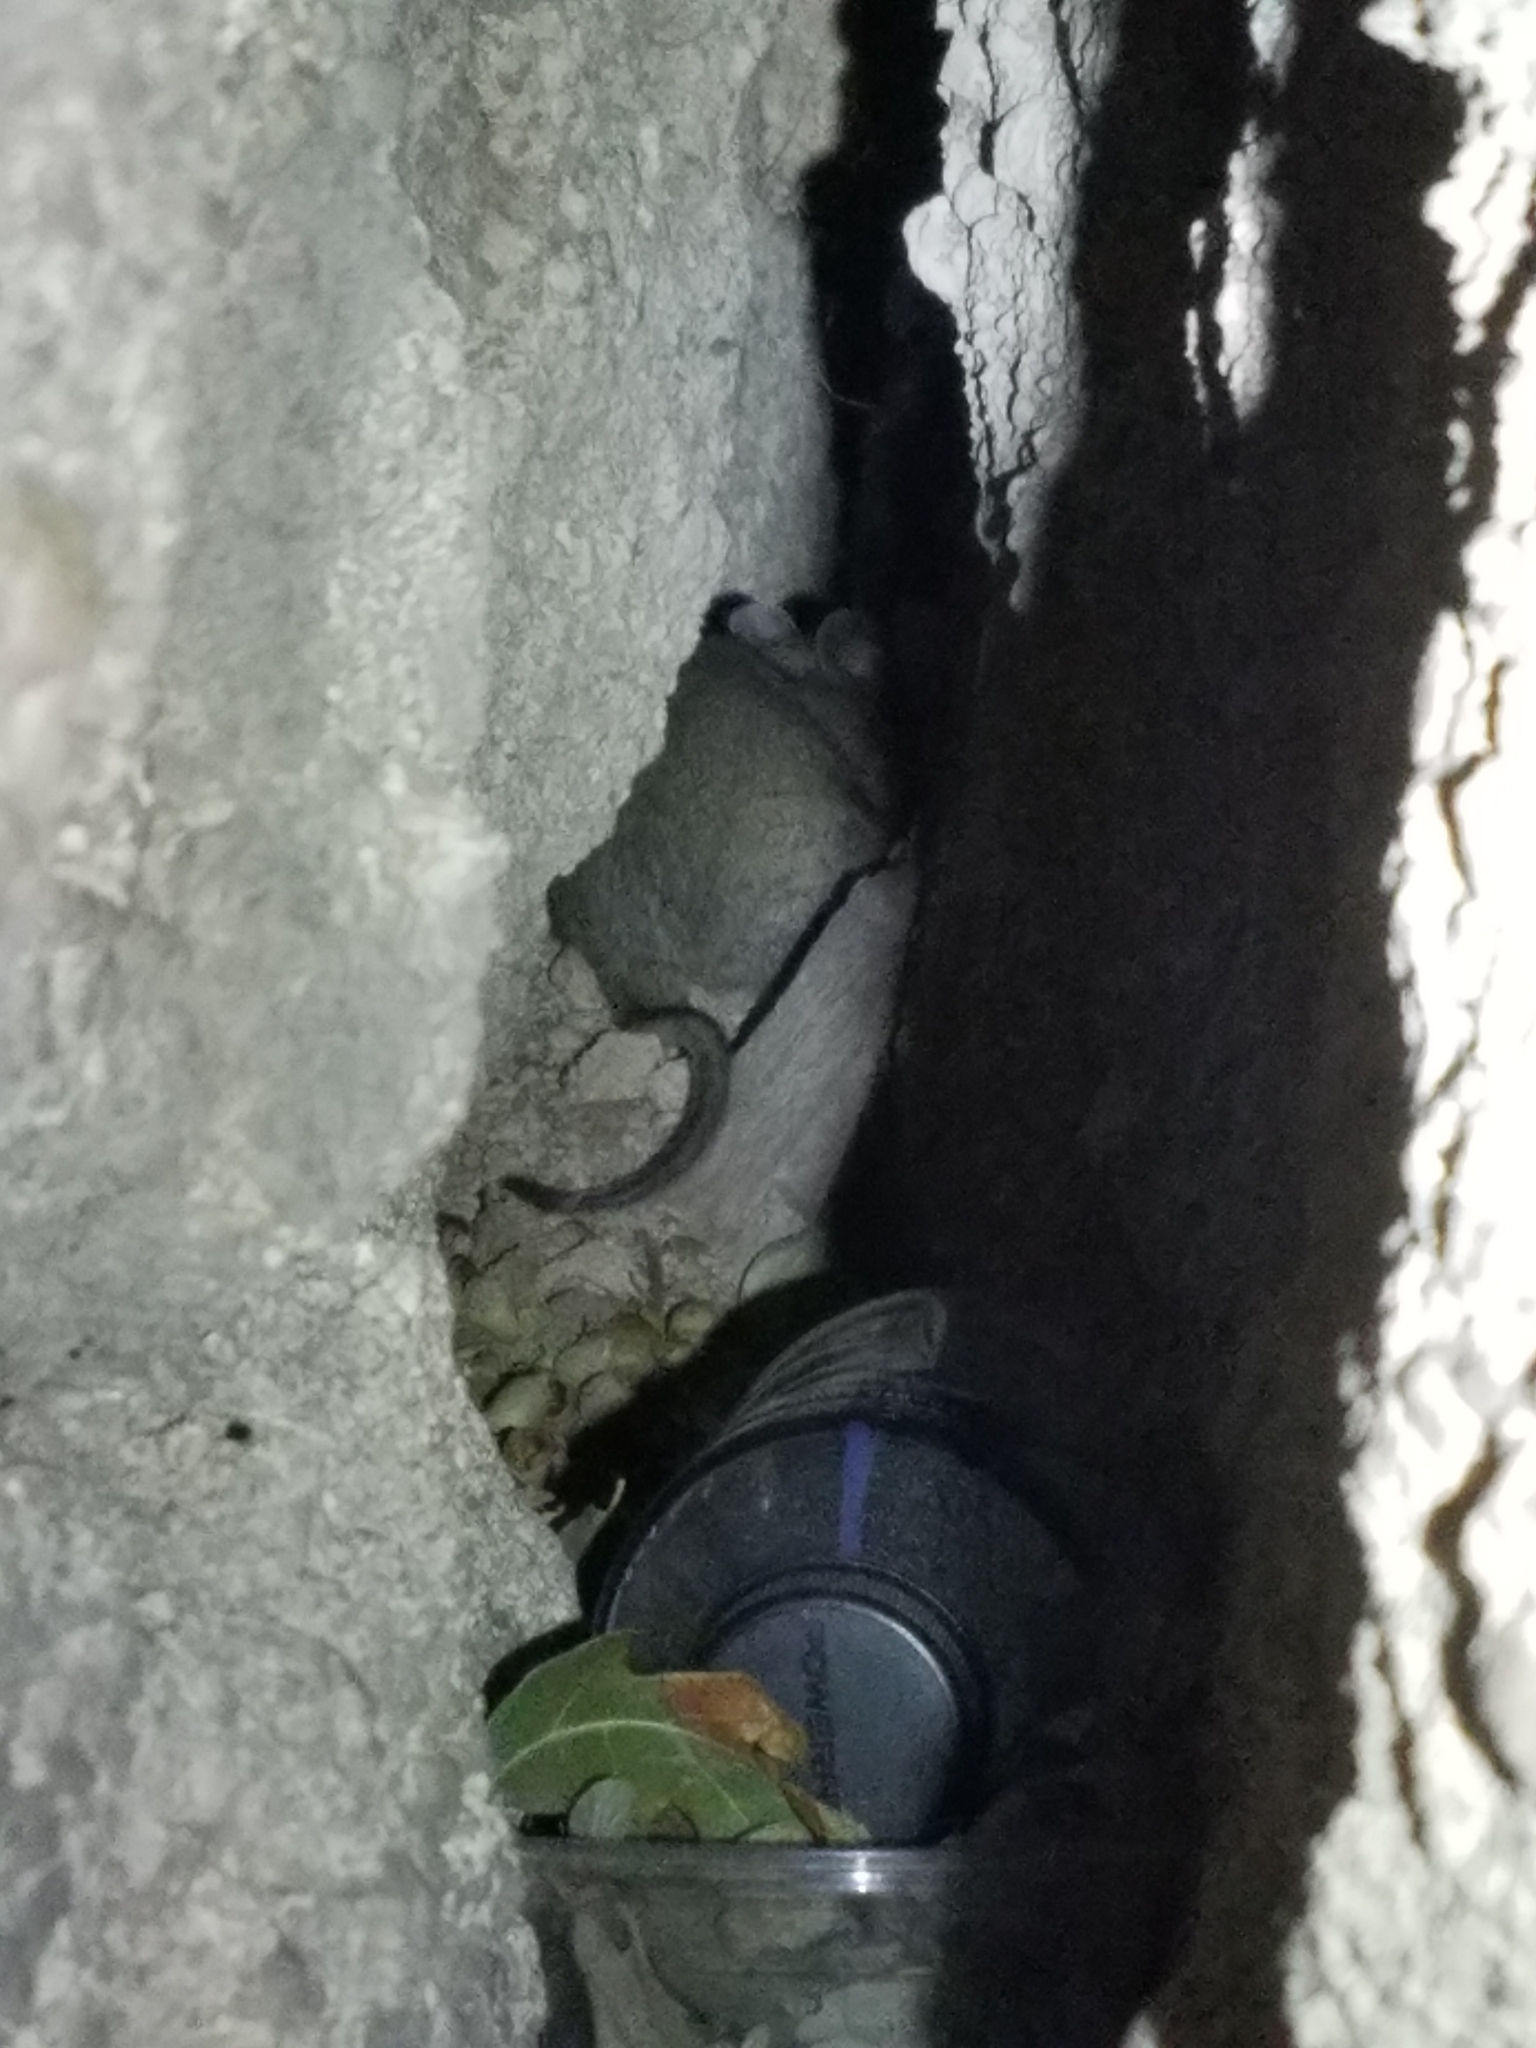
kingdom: Animalia
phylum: Chordata
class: Mammalia
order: Rodentia
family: Cricetidae
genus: Neotoma
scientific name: Neotoma mexicana
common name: Mexican woodrat
